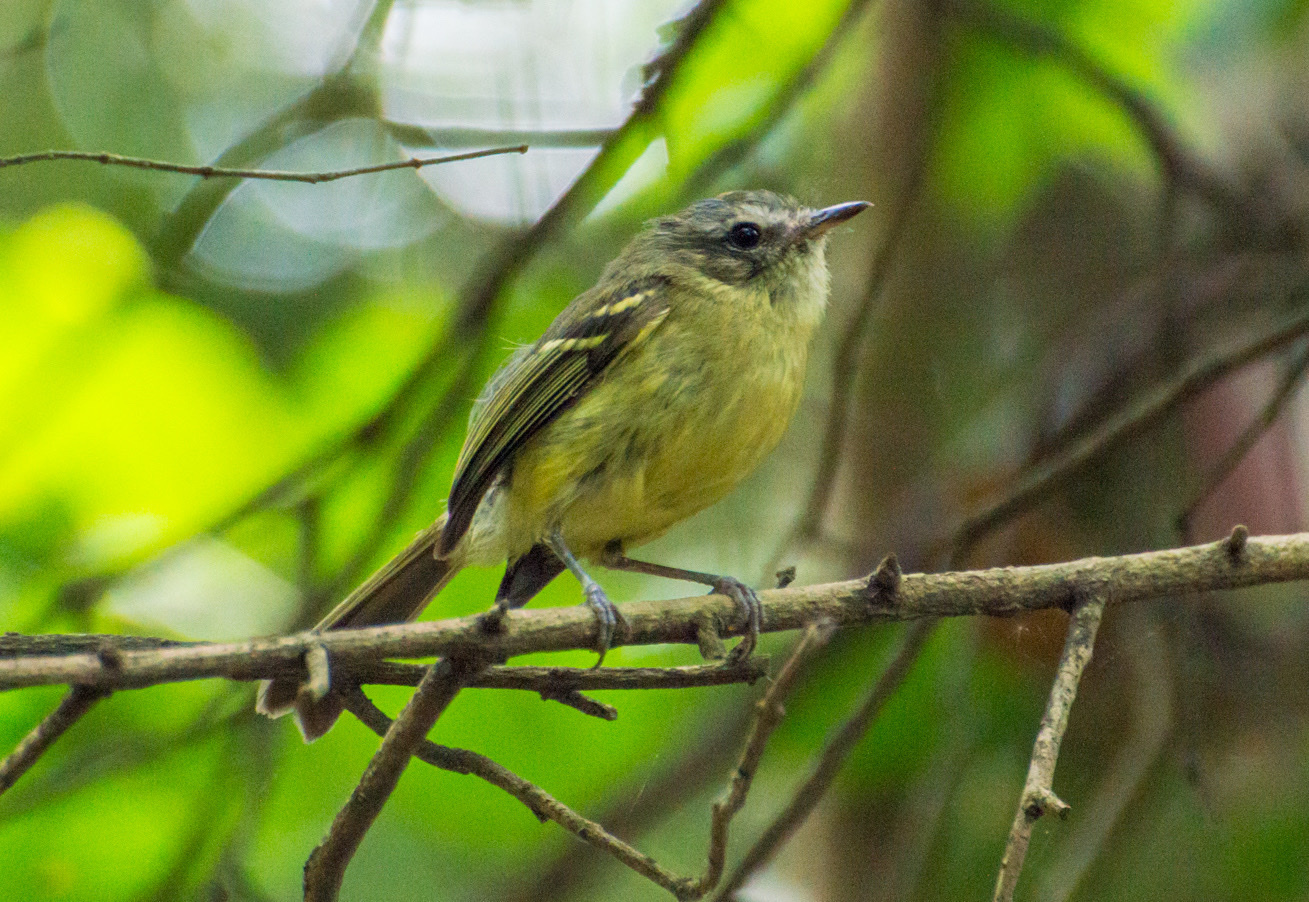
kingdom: Animalia
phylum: Chordata
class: Aves
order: Passeriformes
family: Tyrannidae
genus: Phylloscartes
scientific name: Phylloscartes ventralis
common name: Mottle-cheeked tyrannulet
